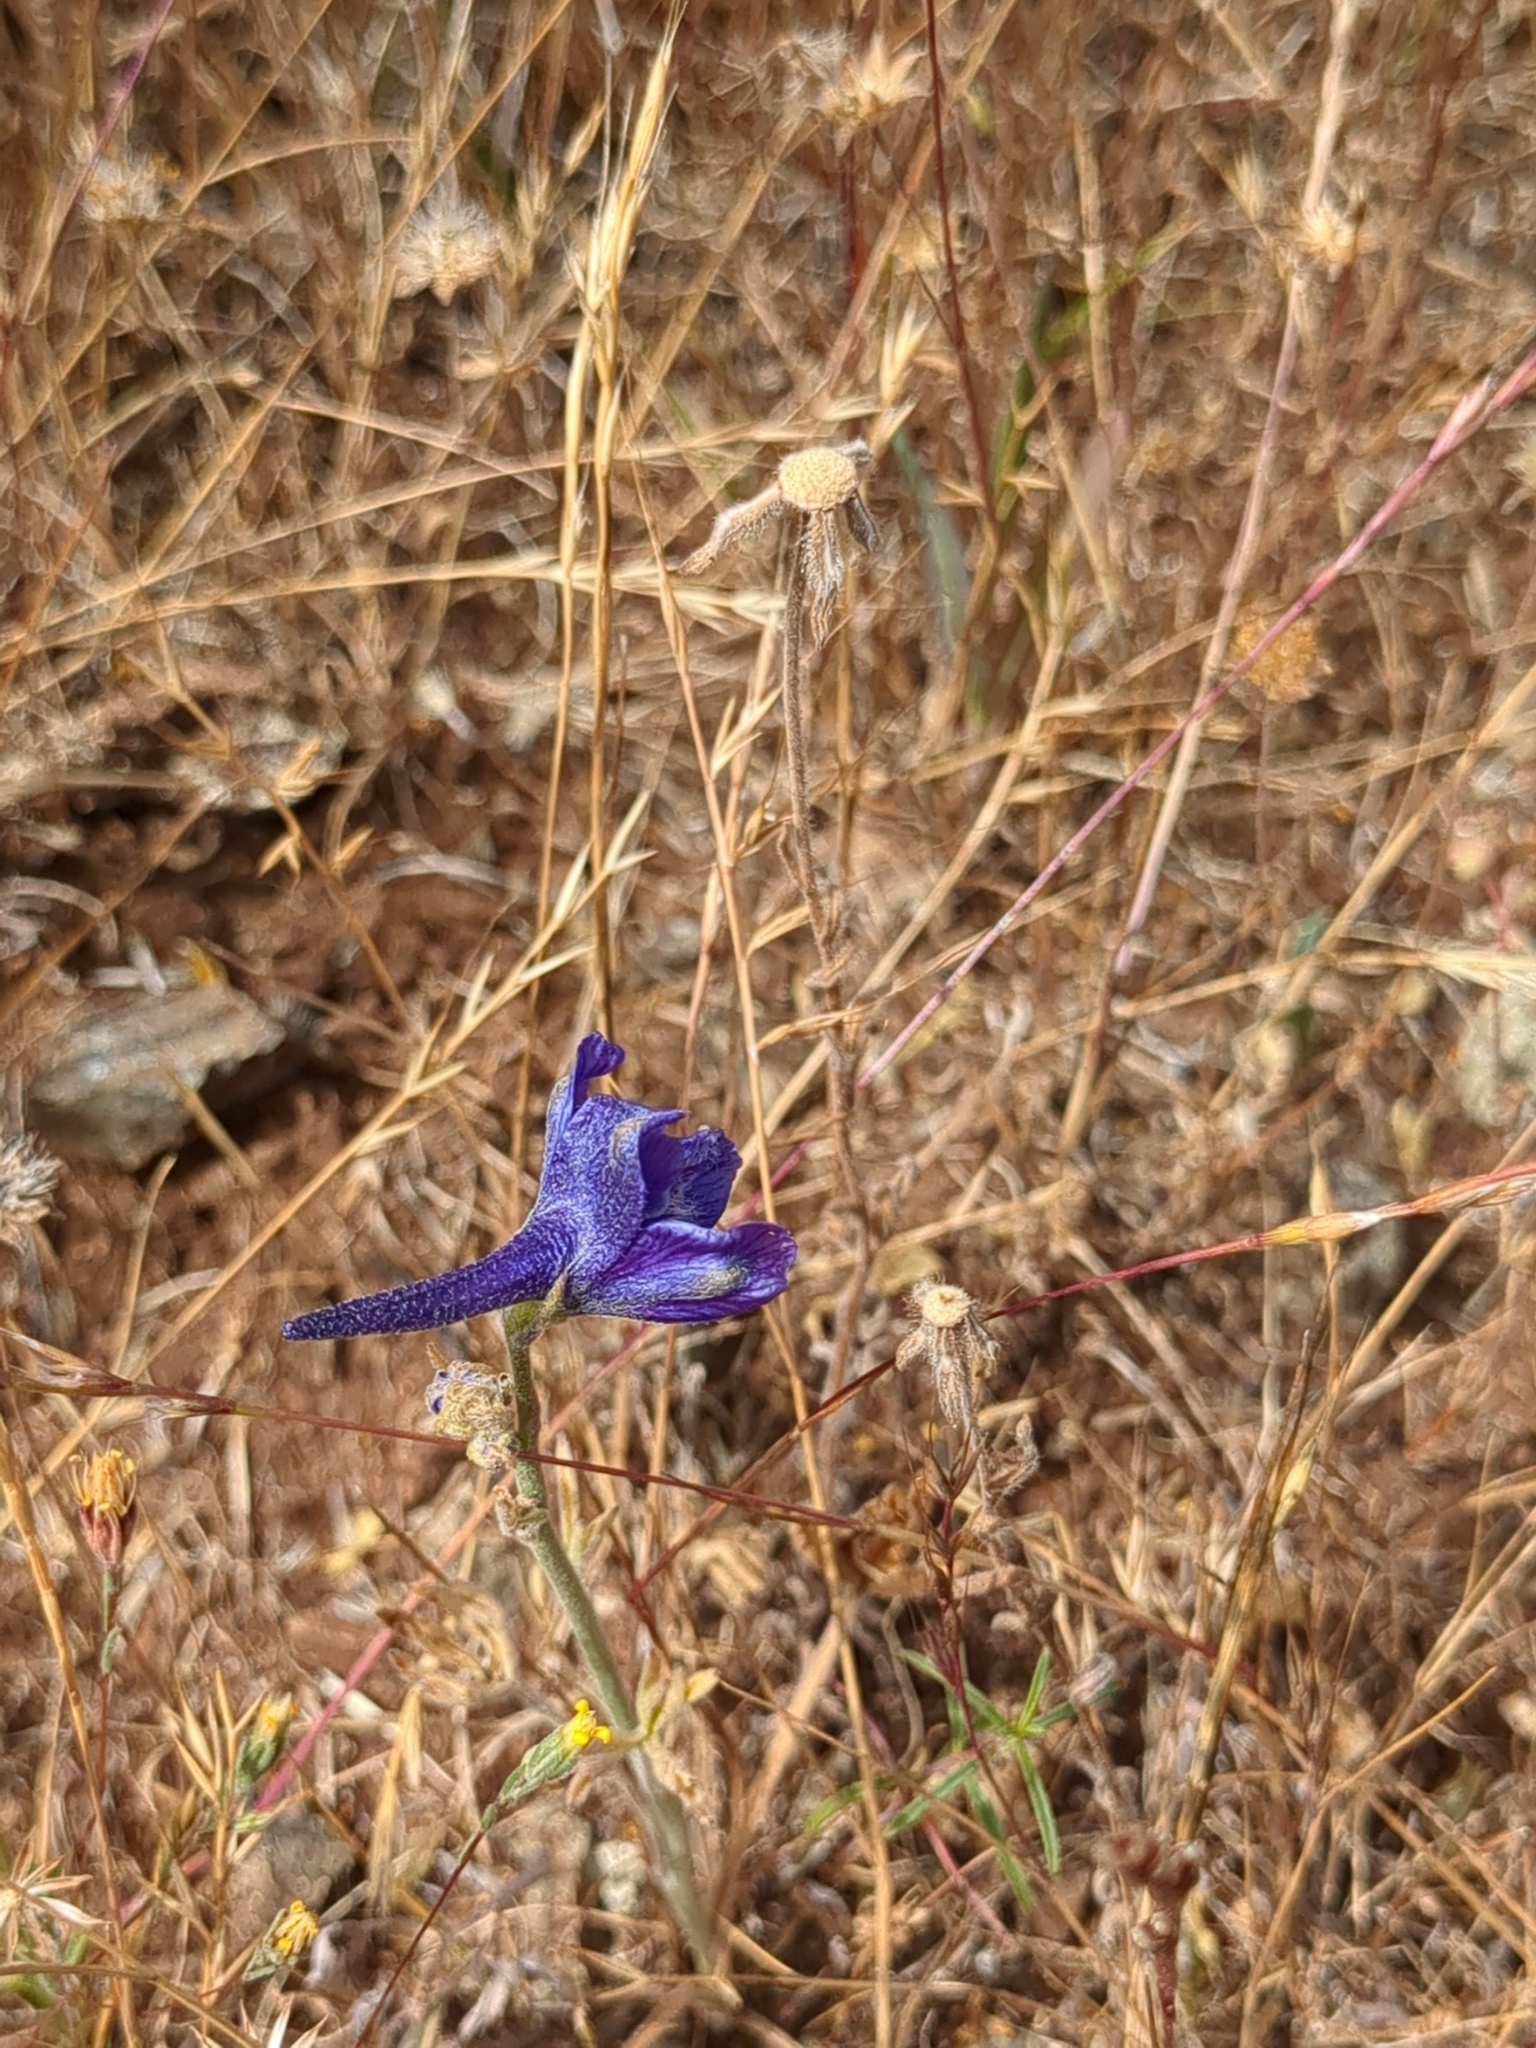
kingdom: Plantae
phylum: Tracheophyta
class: Magnoliopsida
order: Ranunculales
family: Ranunculaceae
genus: Delphinium
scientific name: Delphinium hesperium
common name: Western larkspur
